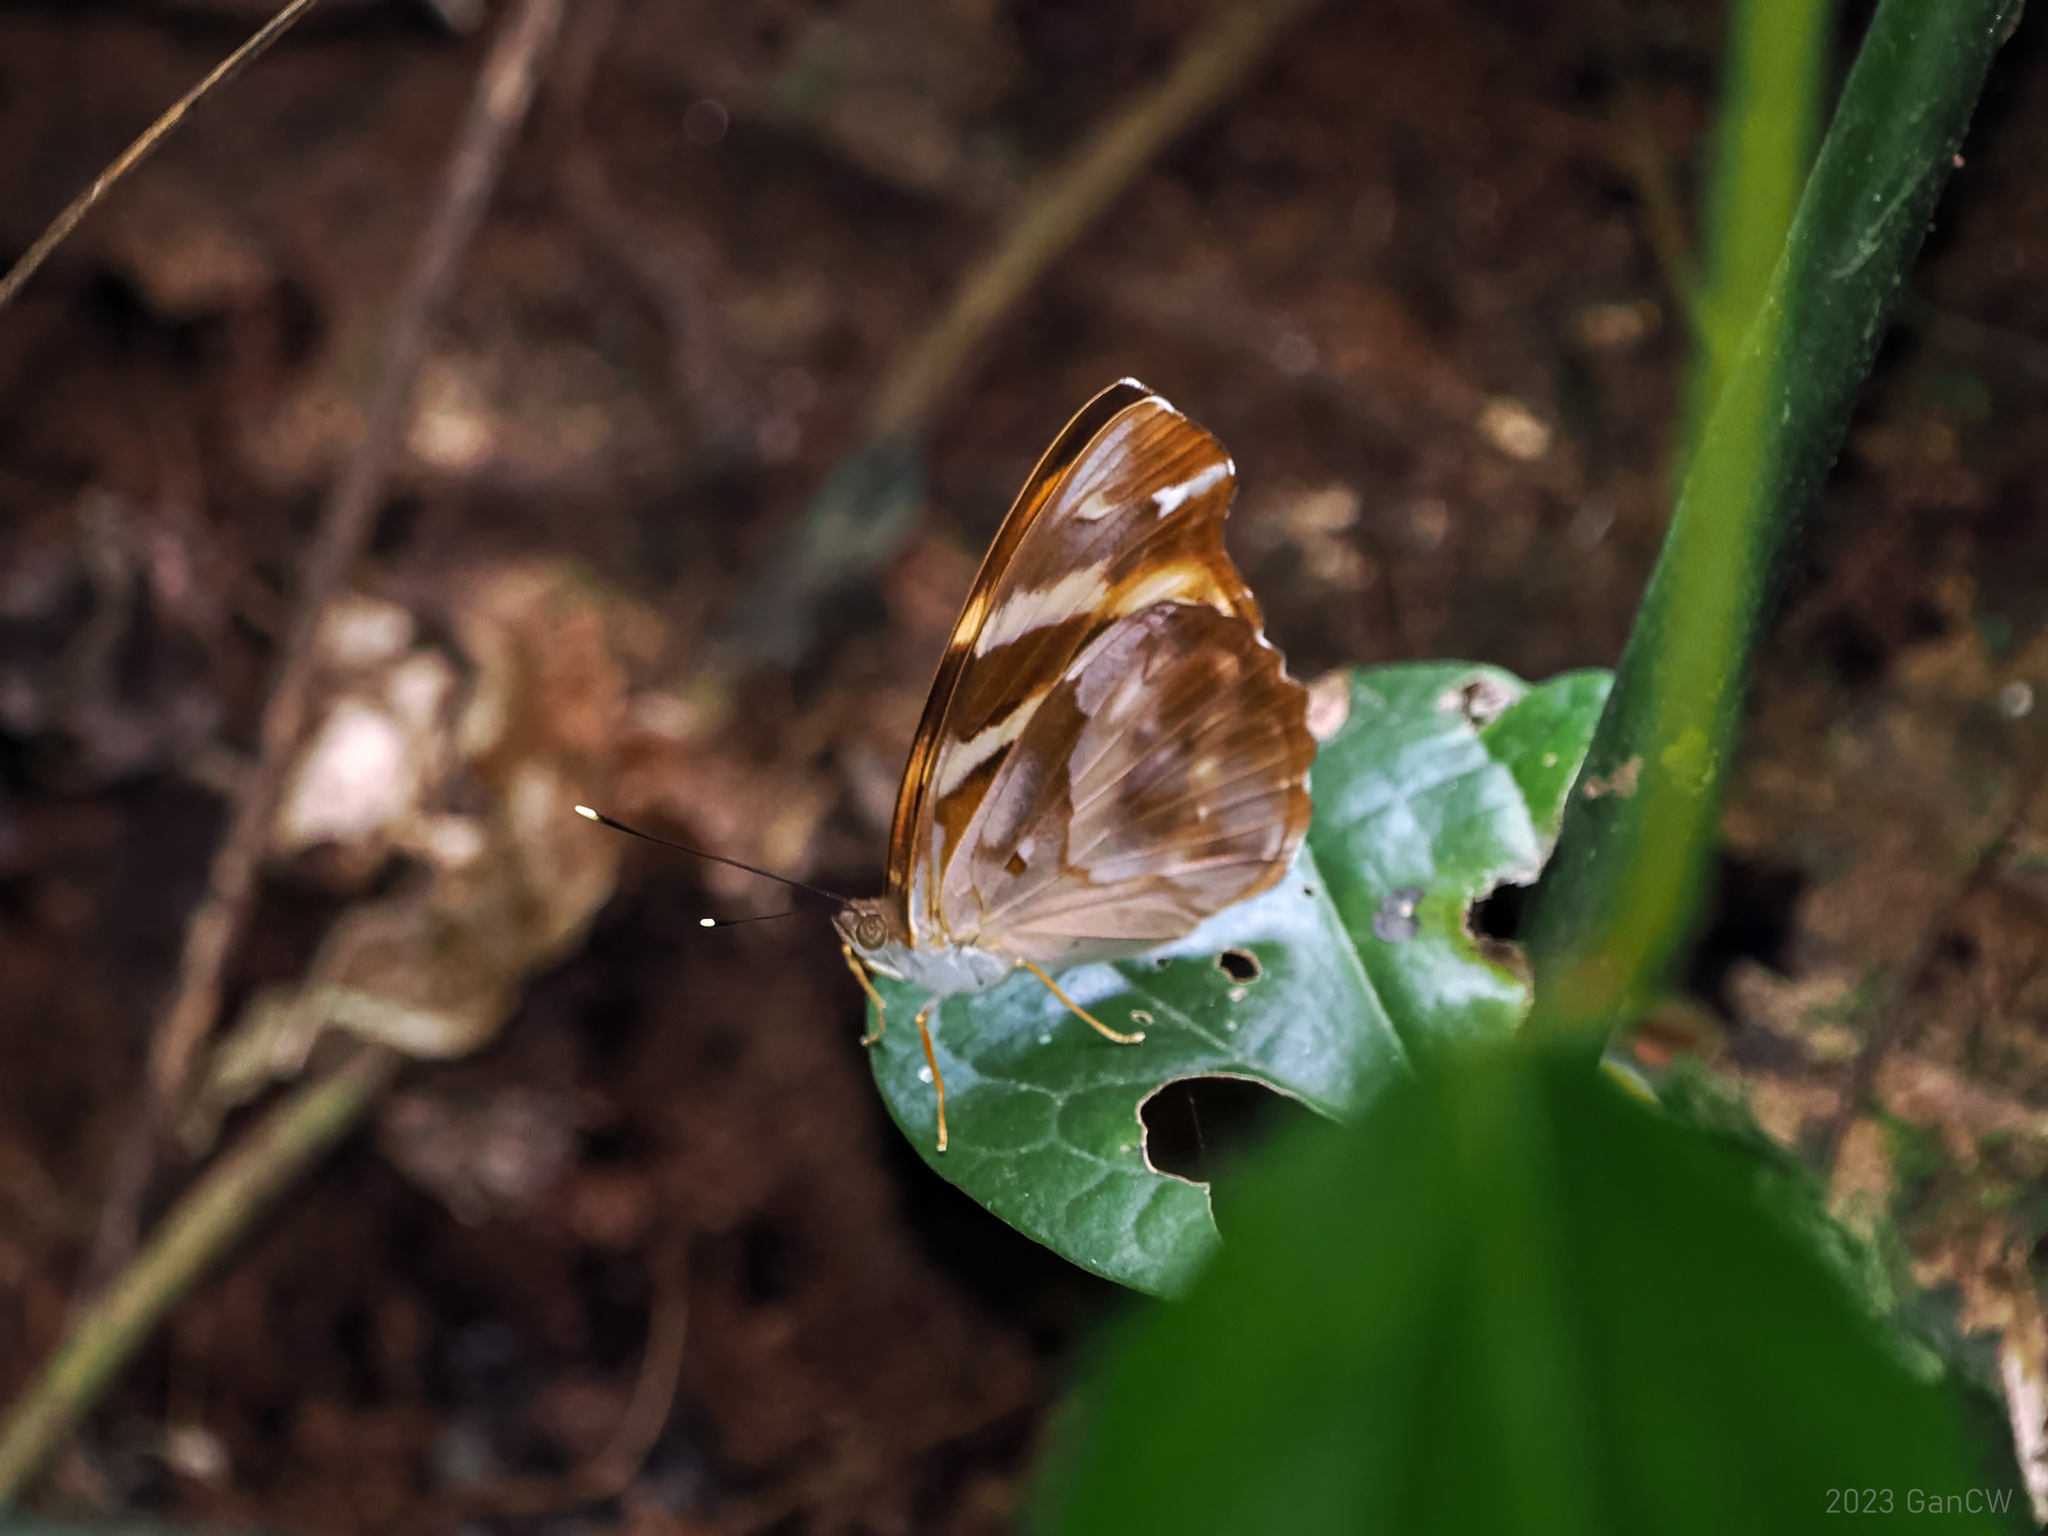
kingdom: Animalia
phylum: Arthropoda
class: Insecta
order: Lepidoptera
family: Nymphalidae
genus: Herona
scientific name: Herona marathus
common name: Yellow pasha
